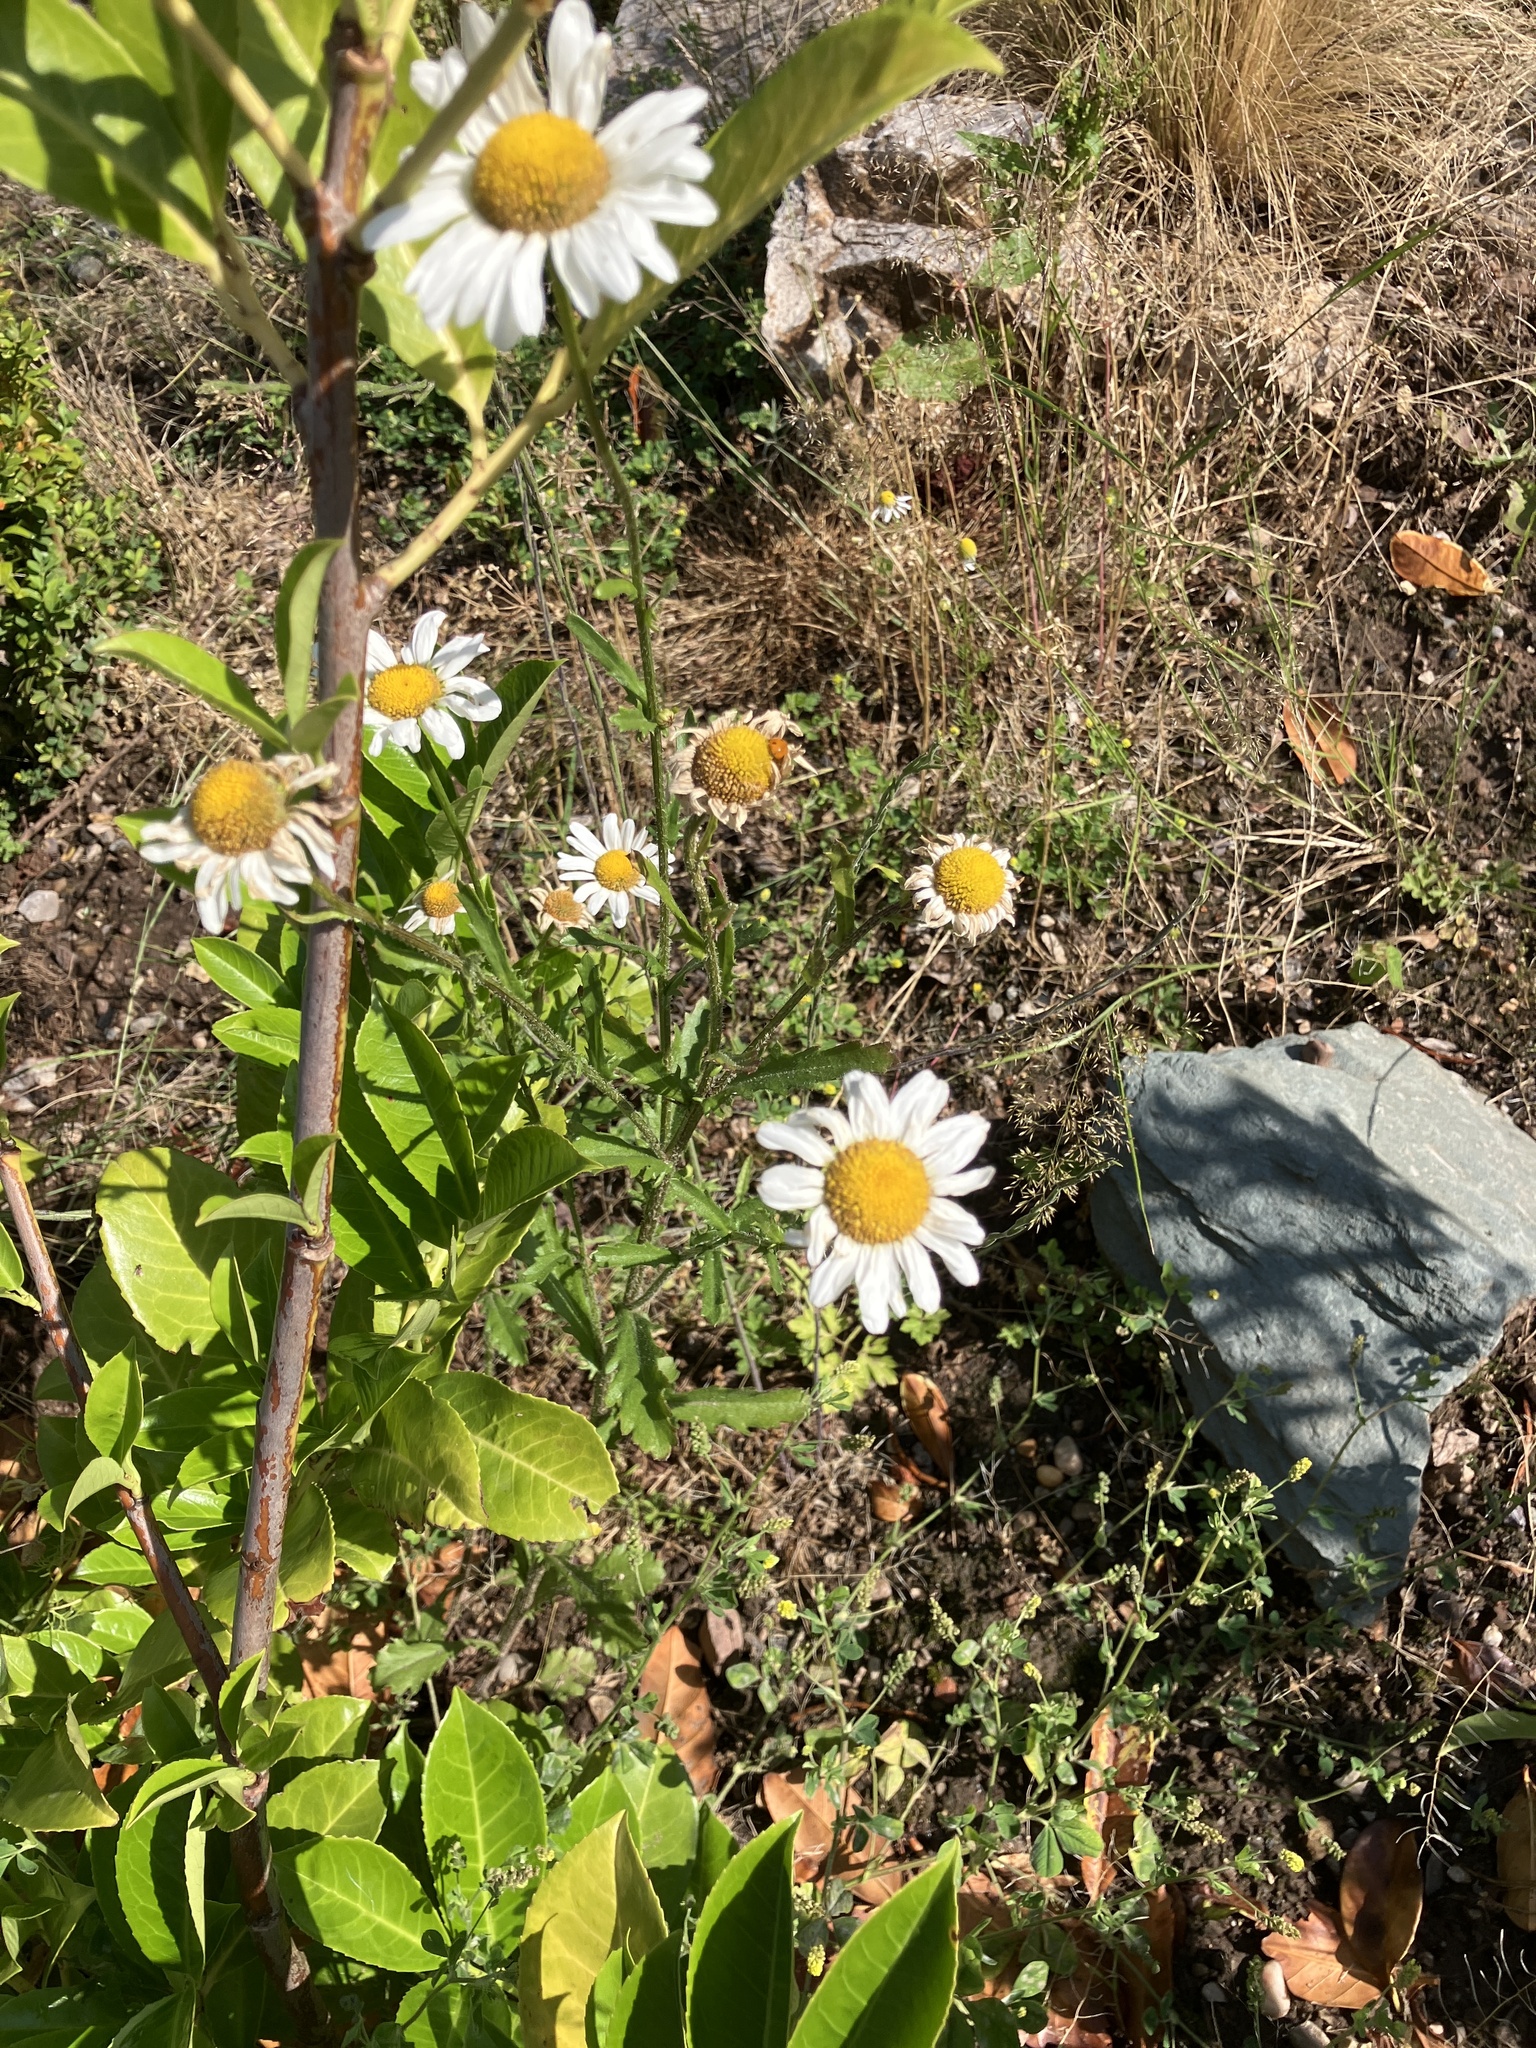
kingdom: Plantae
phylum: Tracheophyta
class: Magnoliopsida
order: Asterales
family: Asteraceae
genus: Leucanthemum
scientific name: Leucanthemum vulgare
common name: Oxeye daisy
